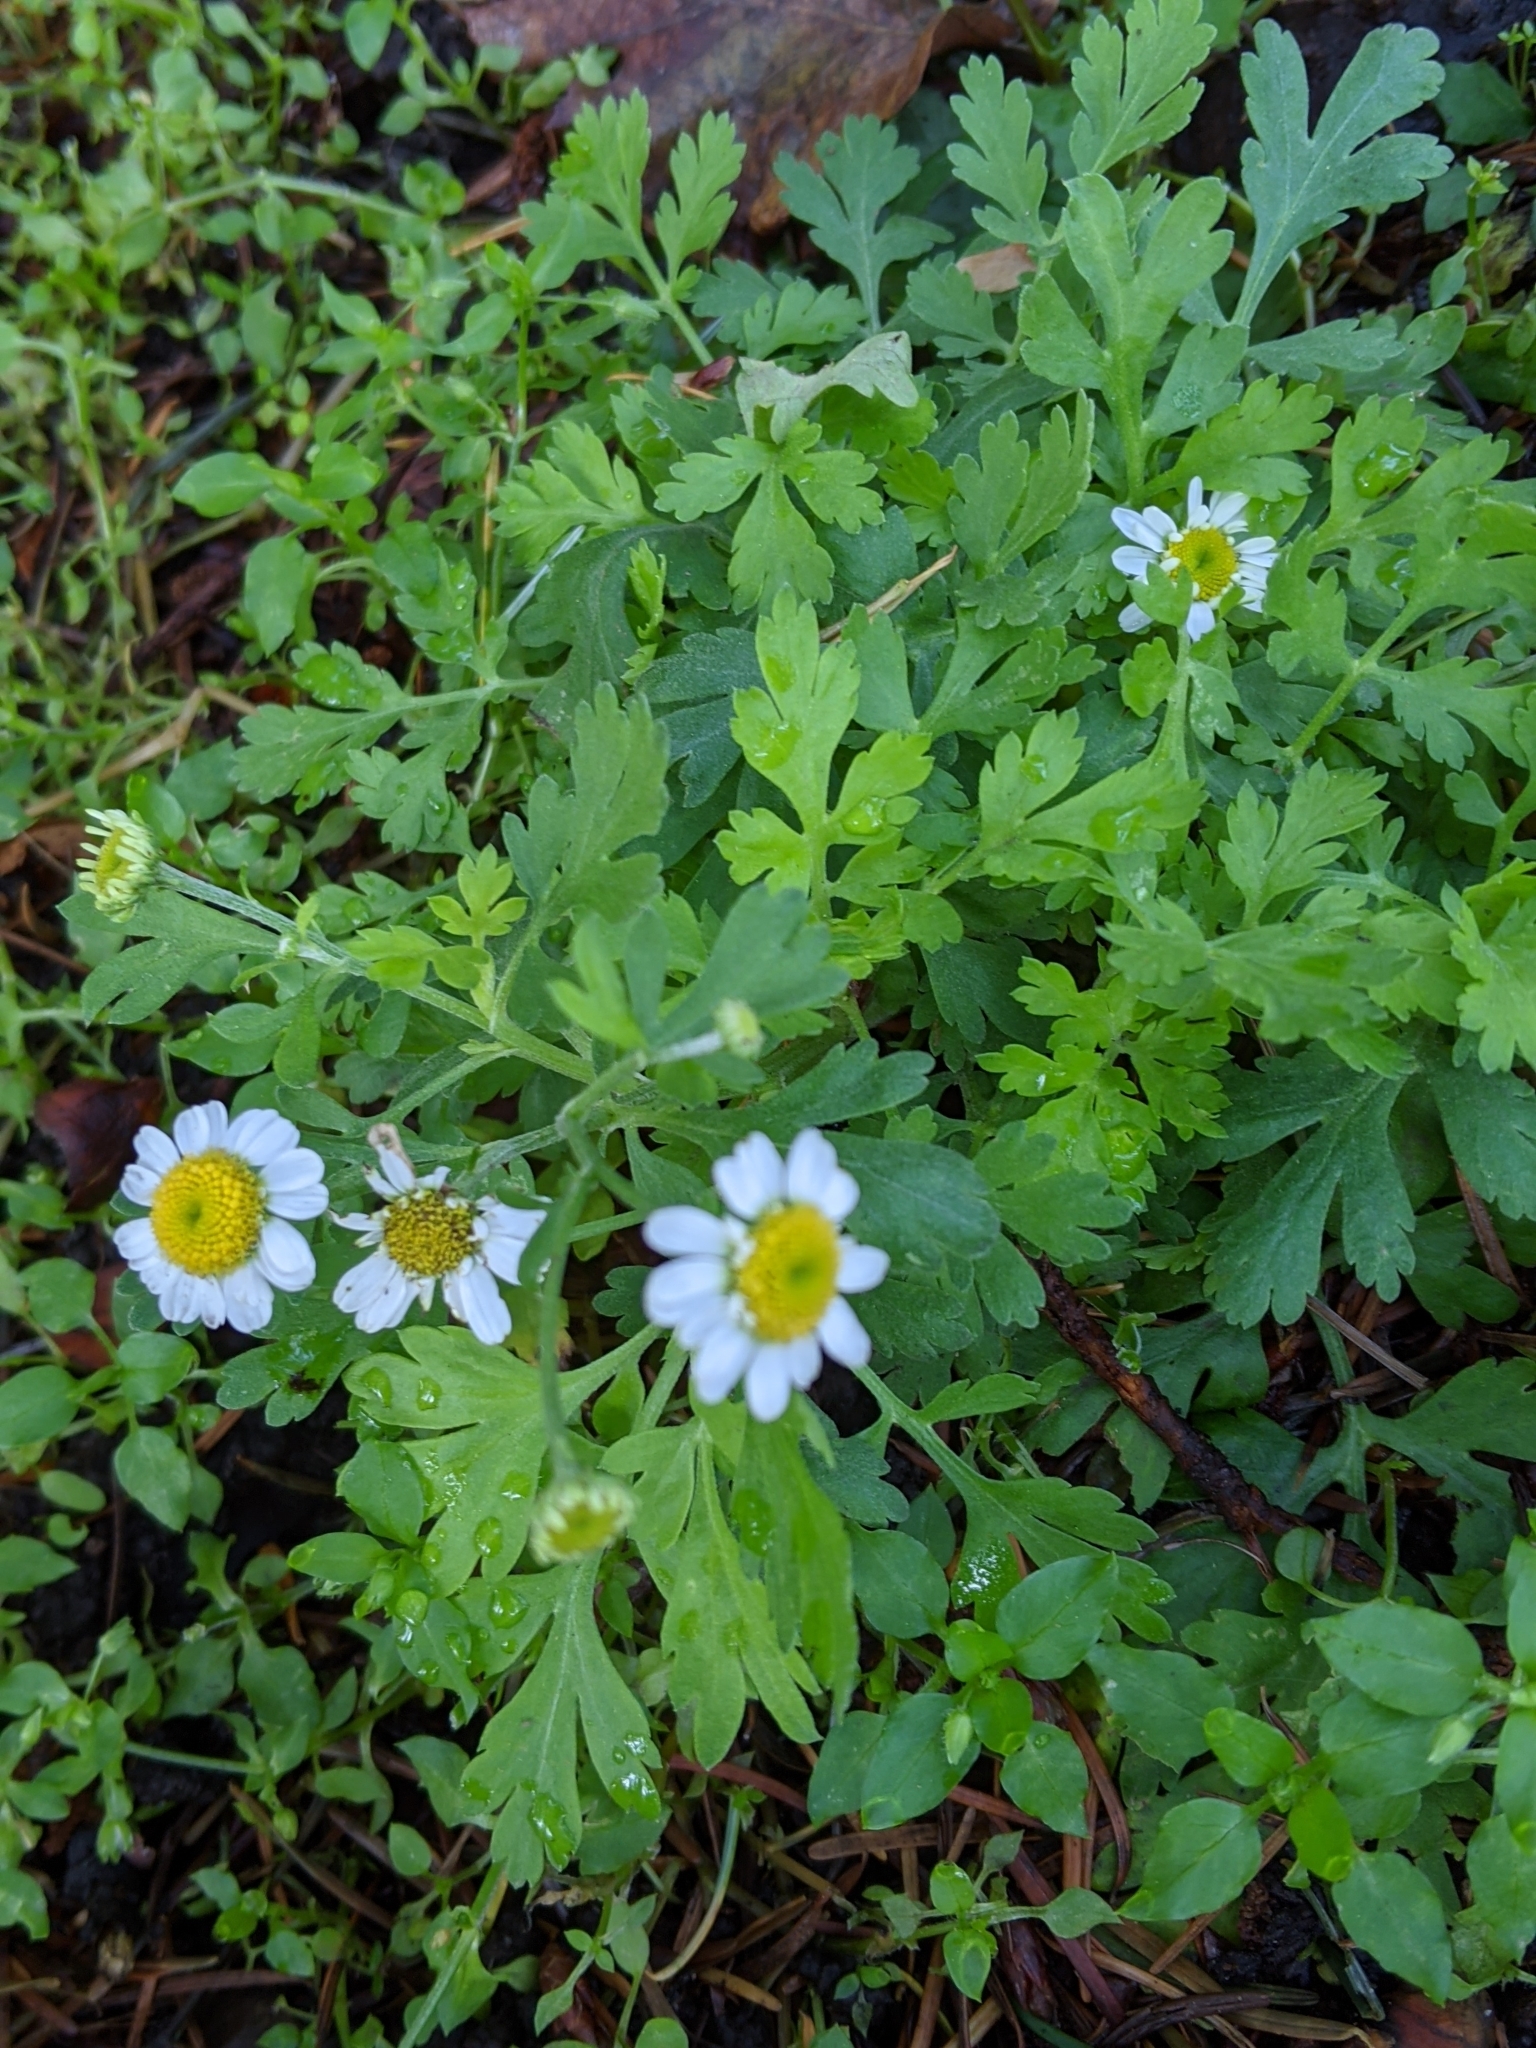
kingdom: Plantae
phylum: Tracheophyta
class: Magnoliopsida
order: Asterales
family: Asteraceae
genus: Tanacetum
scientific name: Tanacetum parthenium
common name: Feverfew
